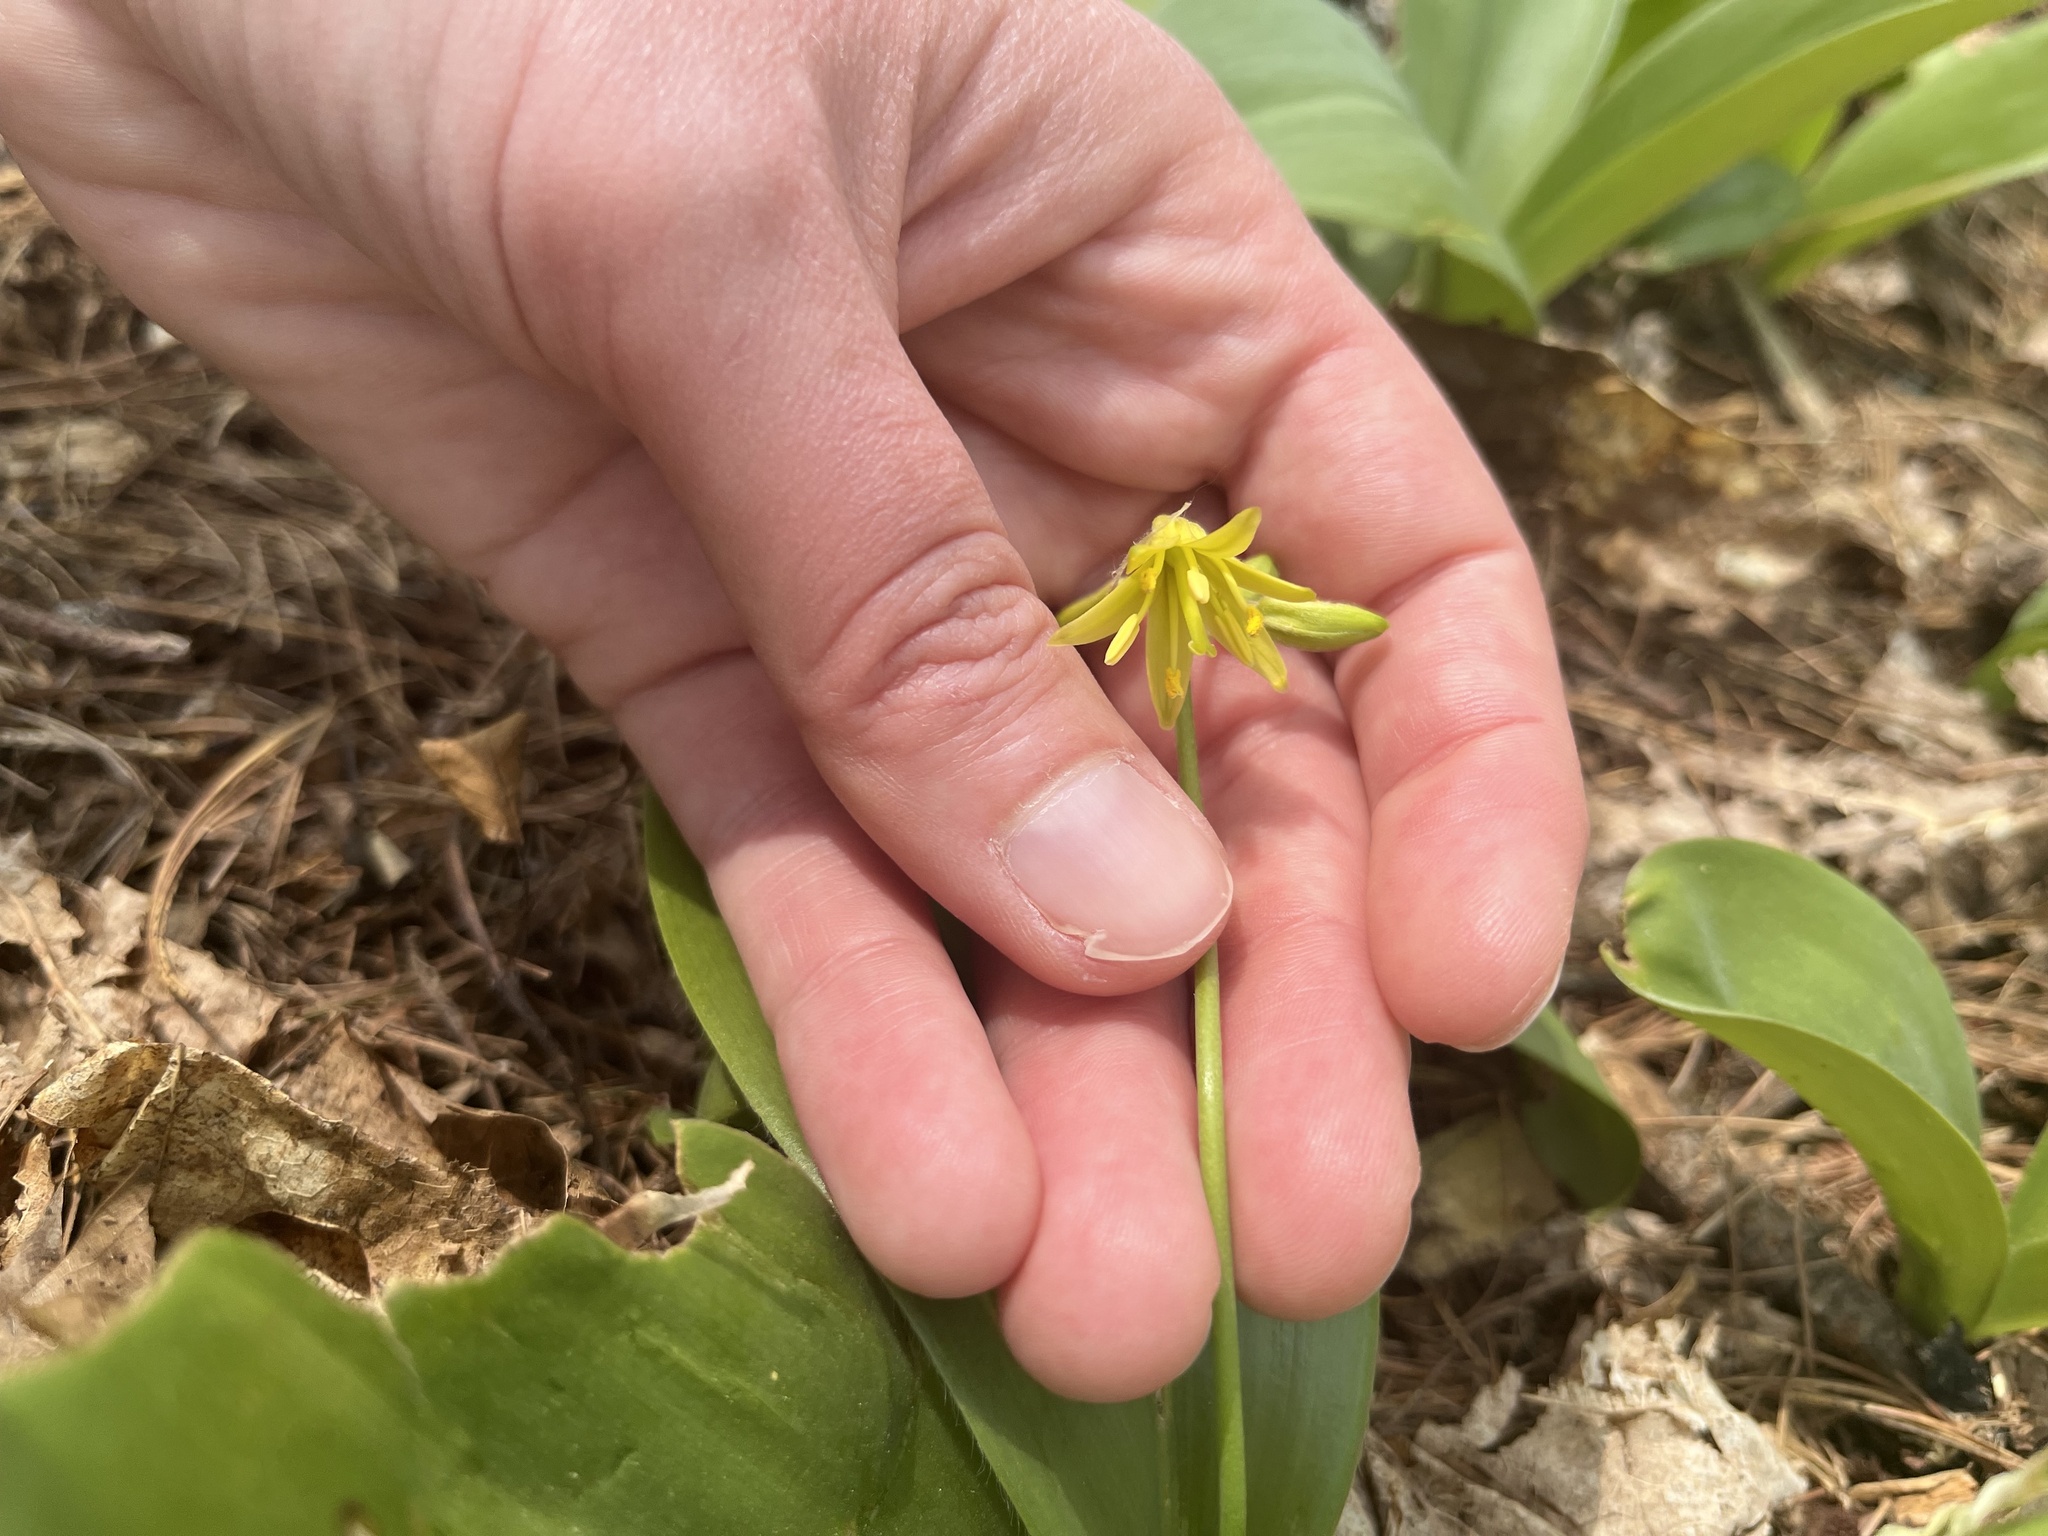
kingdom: Plantae
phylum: Tracheophyta
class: Liliopsida
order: Liliales
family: Liliaceae
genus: Clintonia
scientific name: Clintonia borealis
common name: Yellow clintonia
